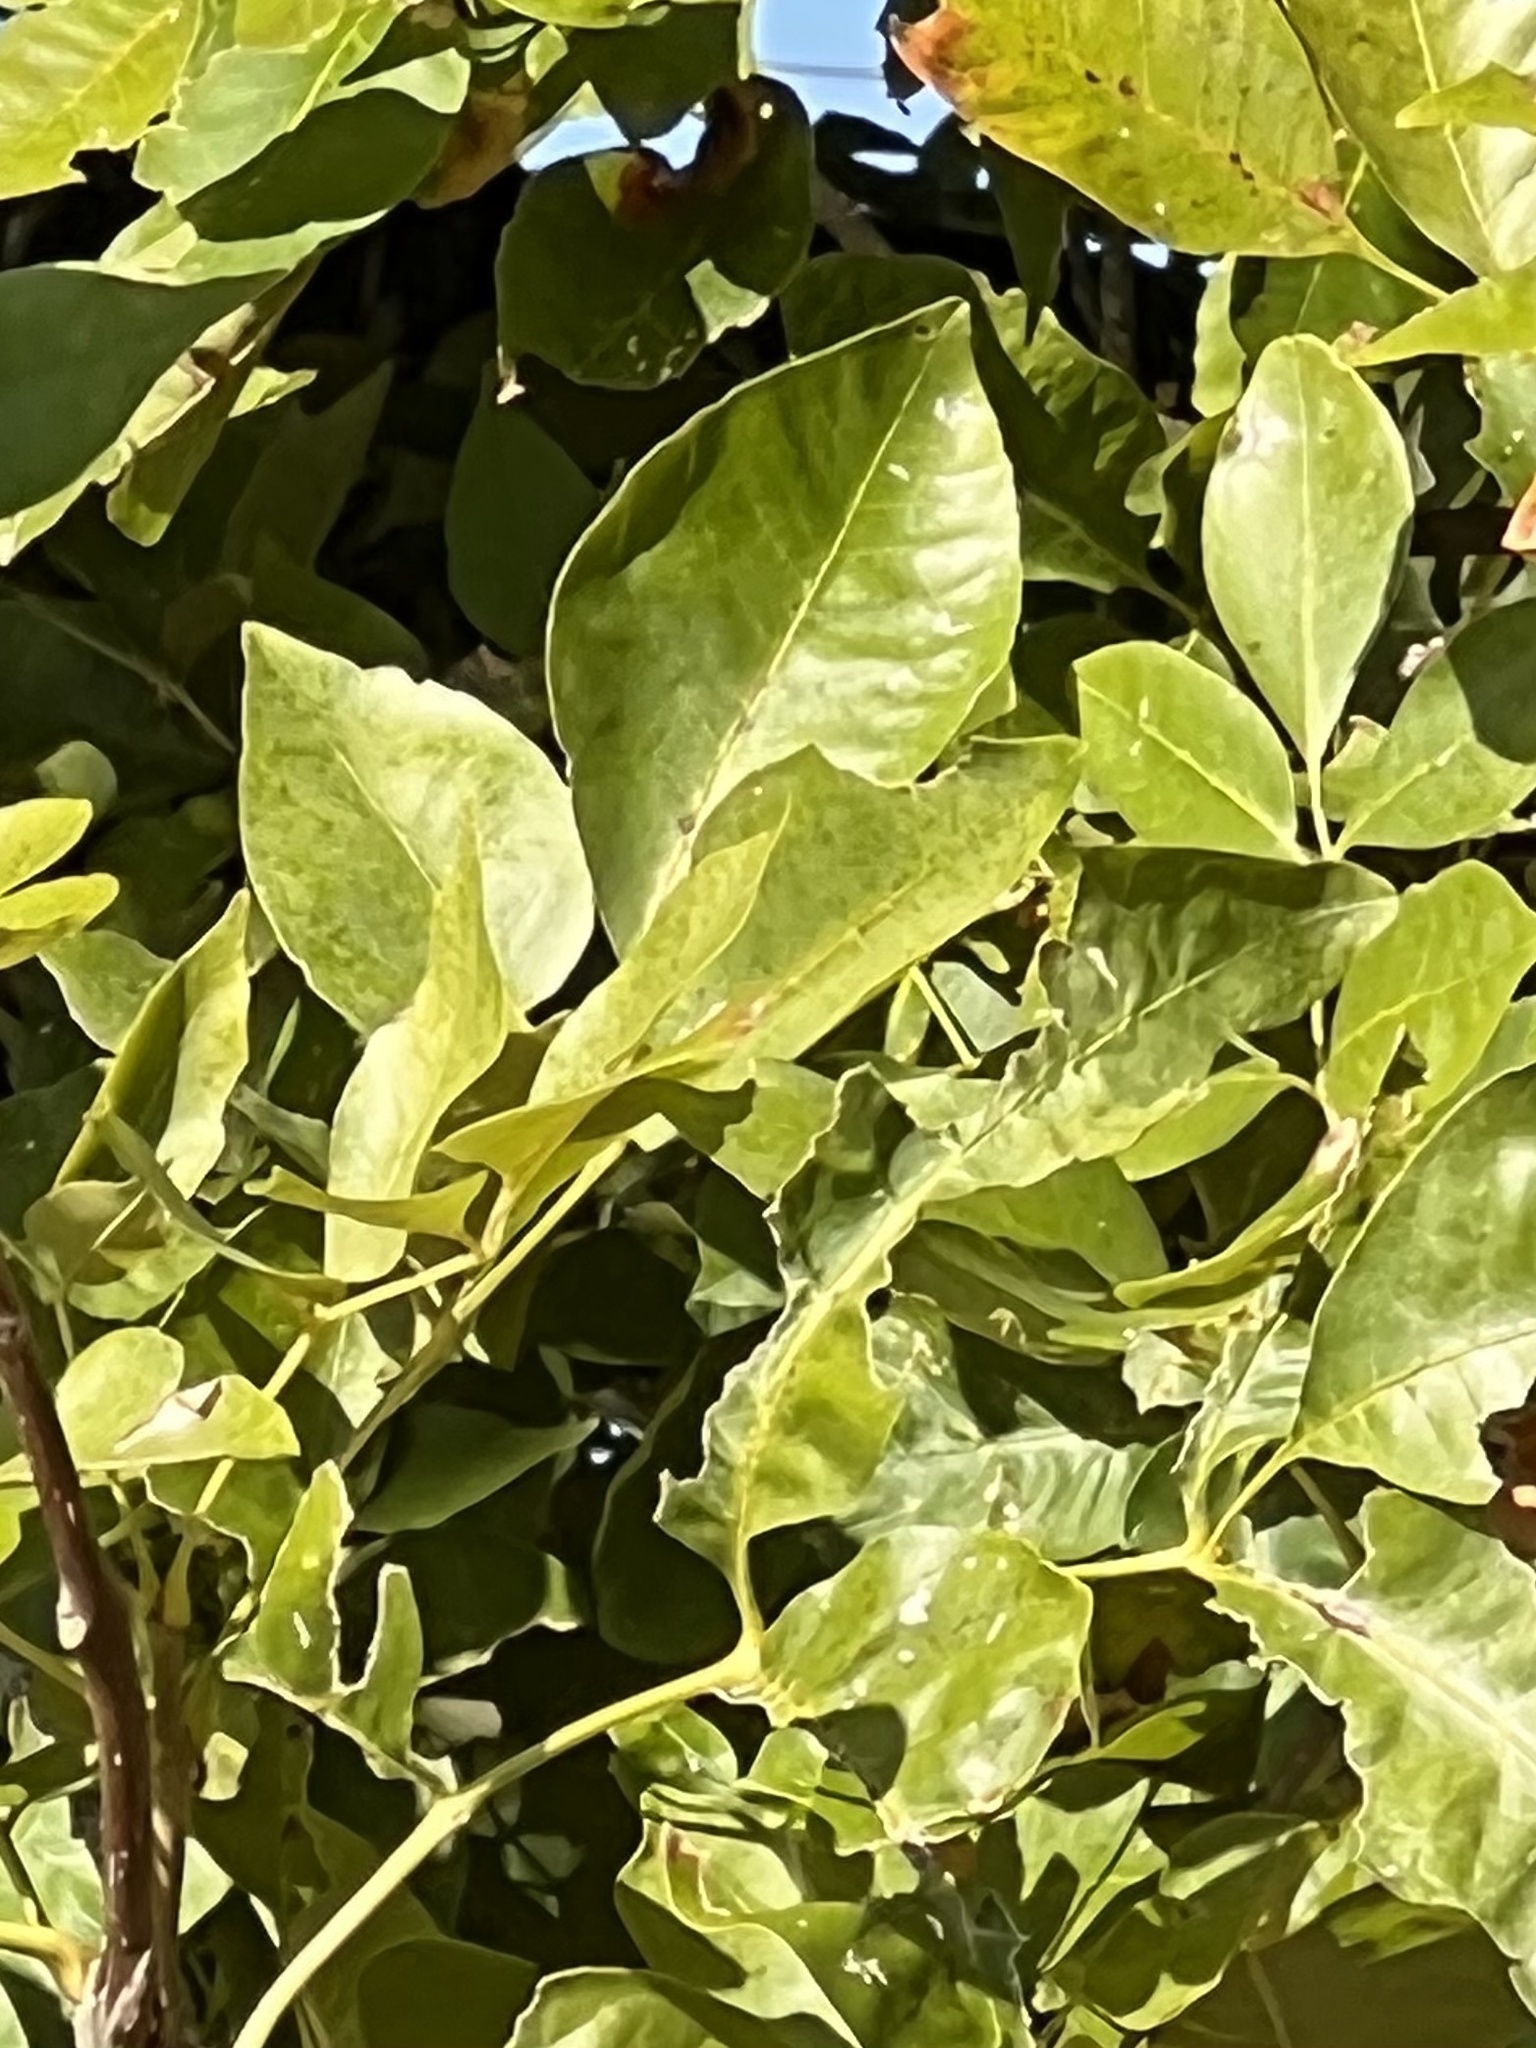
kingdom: Plantae
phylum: Tracheophyta
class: Magnoliopsida
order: Fagales
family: Juglandaceae
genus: Carya
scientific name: Carya texana
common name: Black hickory
